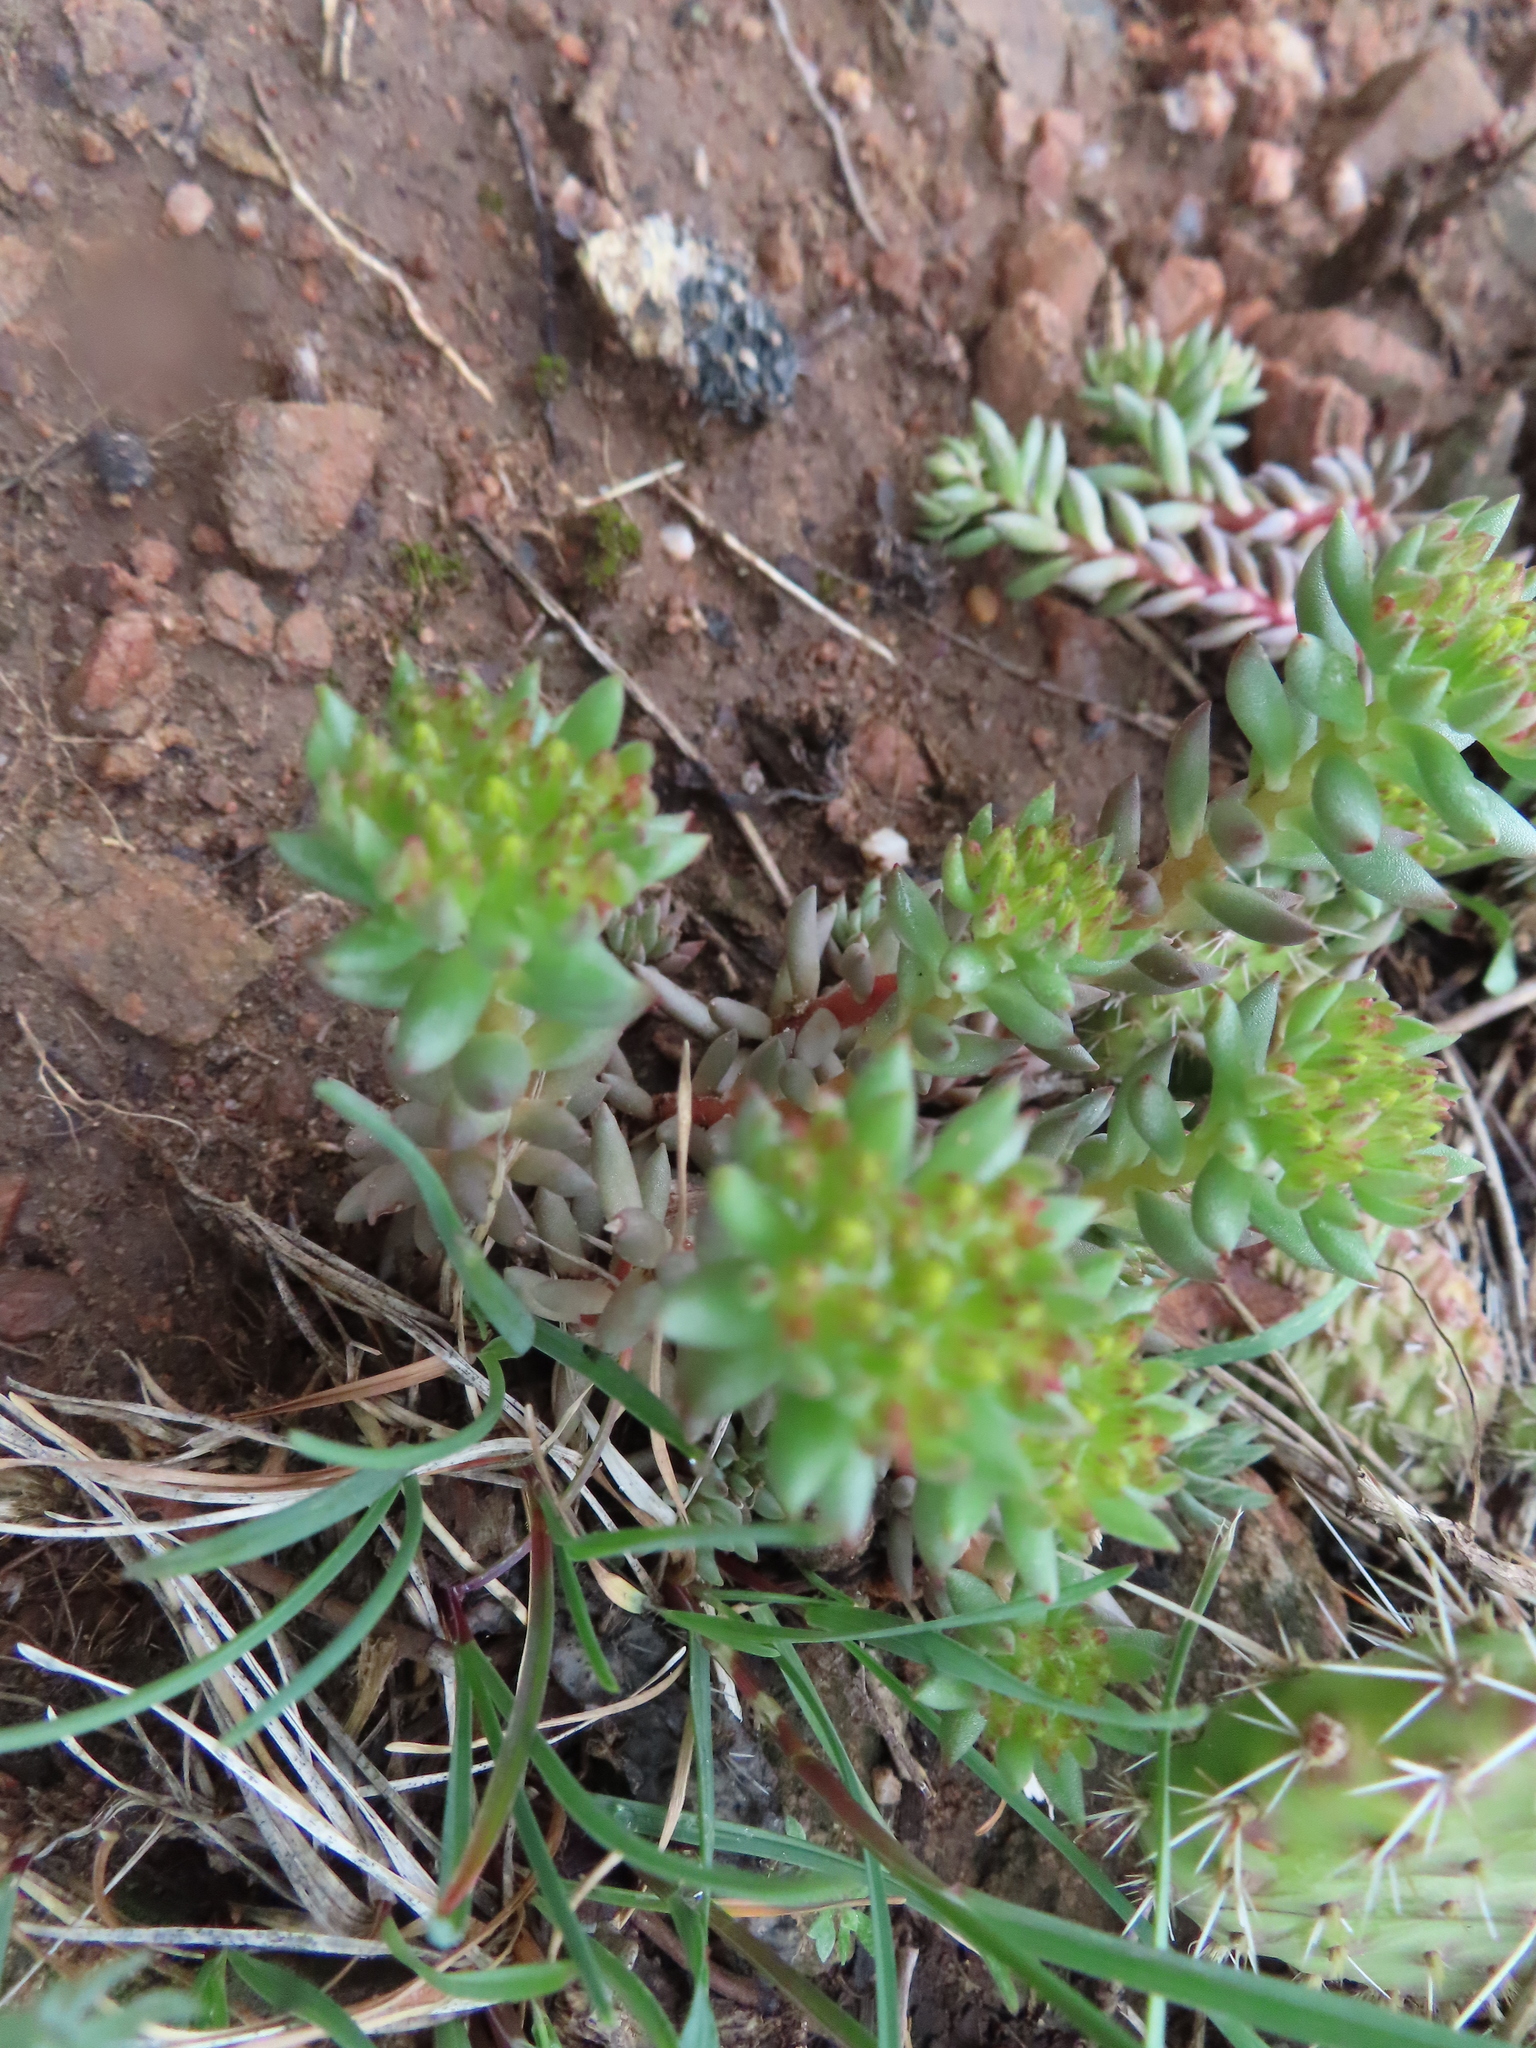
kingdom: Plantae
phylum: Tracheophyta
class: Magnoliopsida
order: Saxifragales
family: Crassulaceae
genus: Sedum
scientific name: Sedum lanceolatum
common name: Common stonecrop
